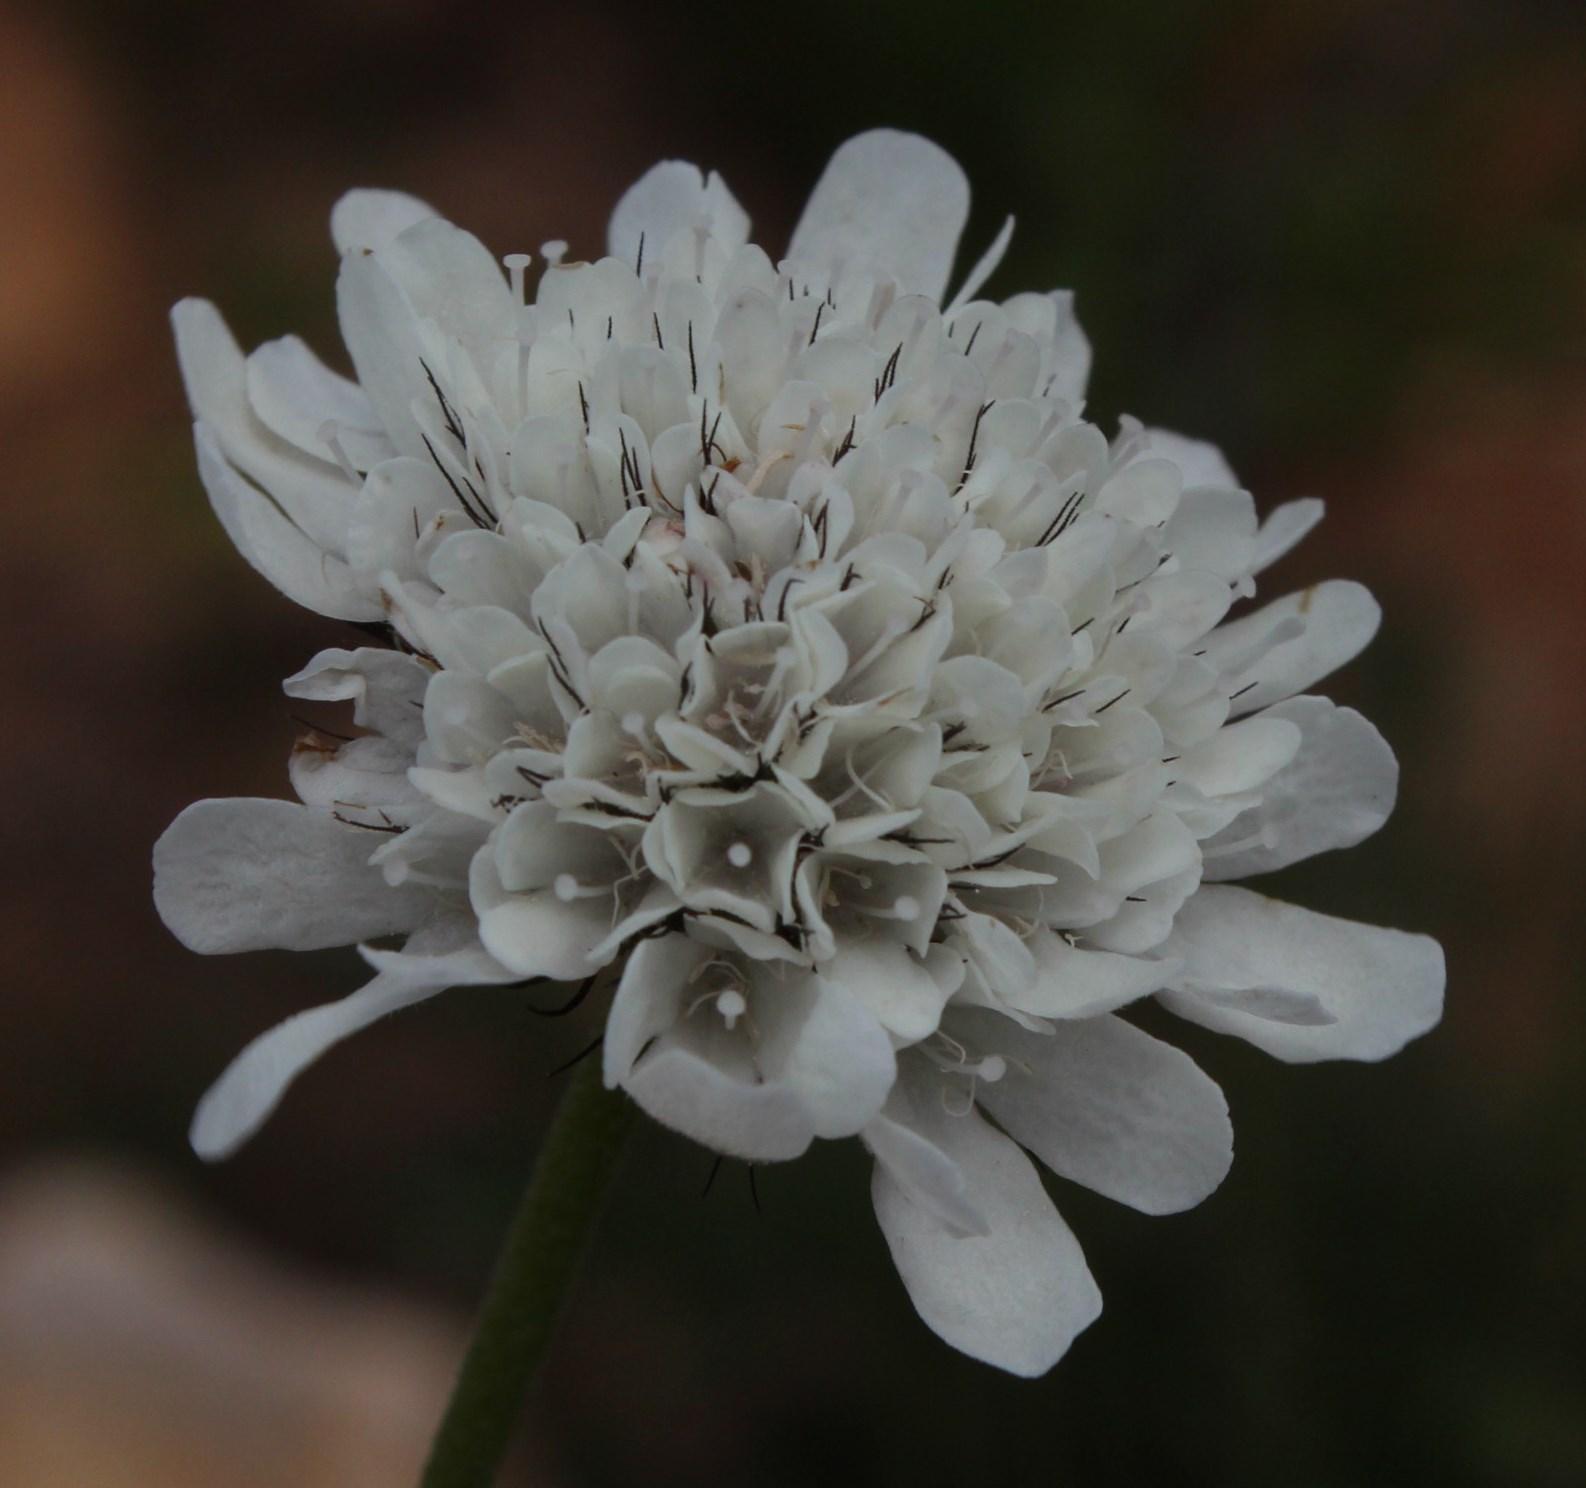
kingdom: Plantae
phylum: Tracheophyta
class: Magnoliopsida
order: Dipsacales
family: Caprifoliaceae
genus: Scabiosa
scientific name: Scabiosa columbaria
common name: Small scabious
